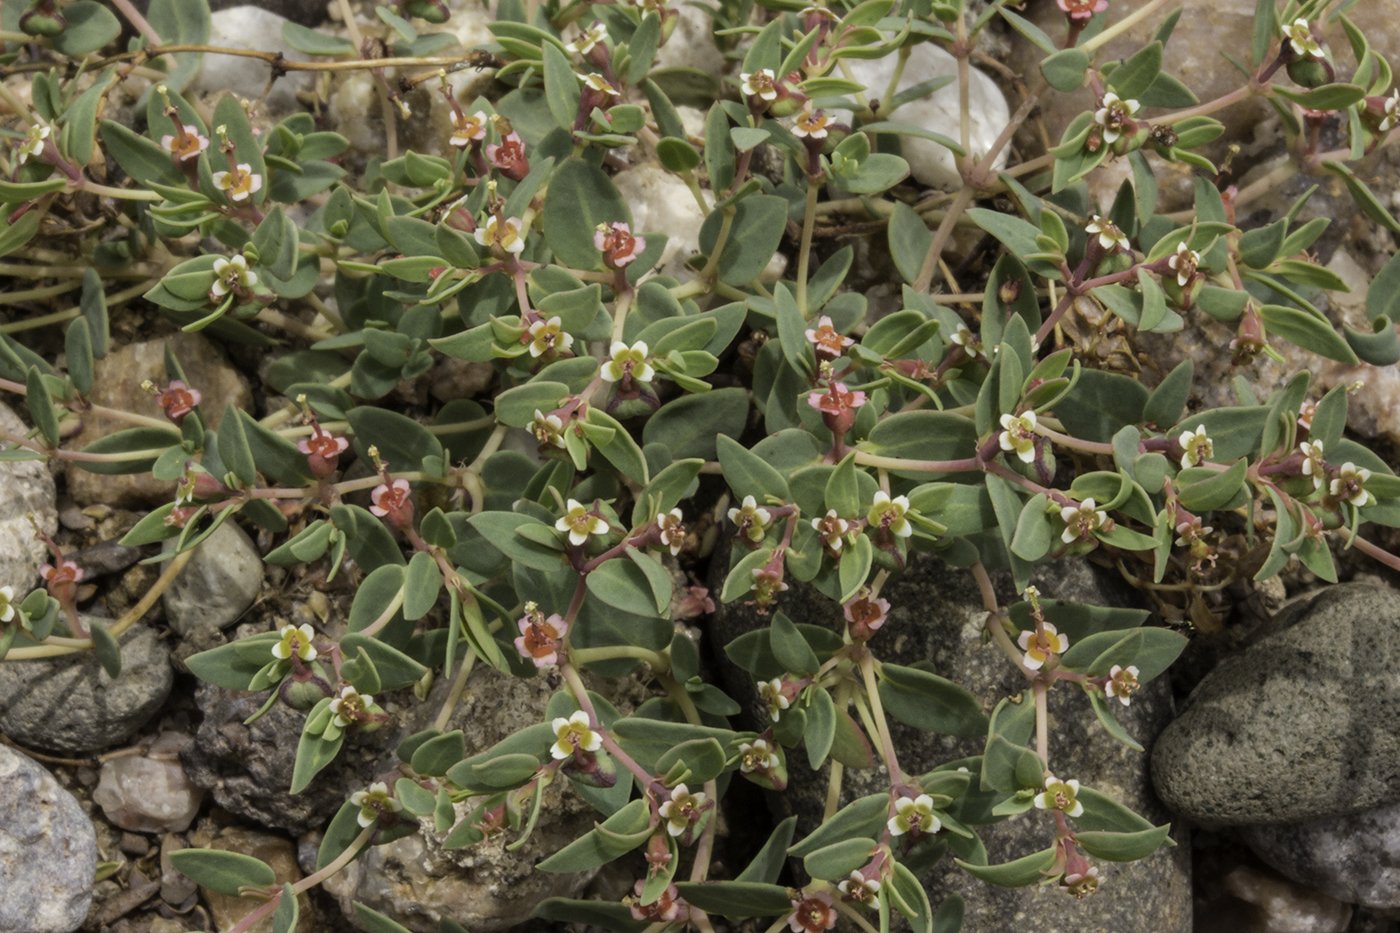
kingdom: Plantae
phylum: Tracheophyta
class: Magnoliopsida
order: Malpighiales
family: Euphorbiaceae
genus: Euphorbia
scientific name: Euphorbia fendleri
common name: Fendler's euphorbia
